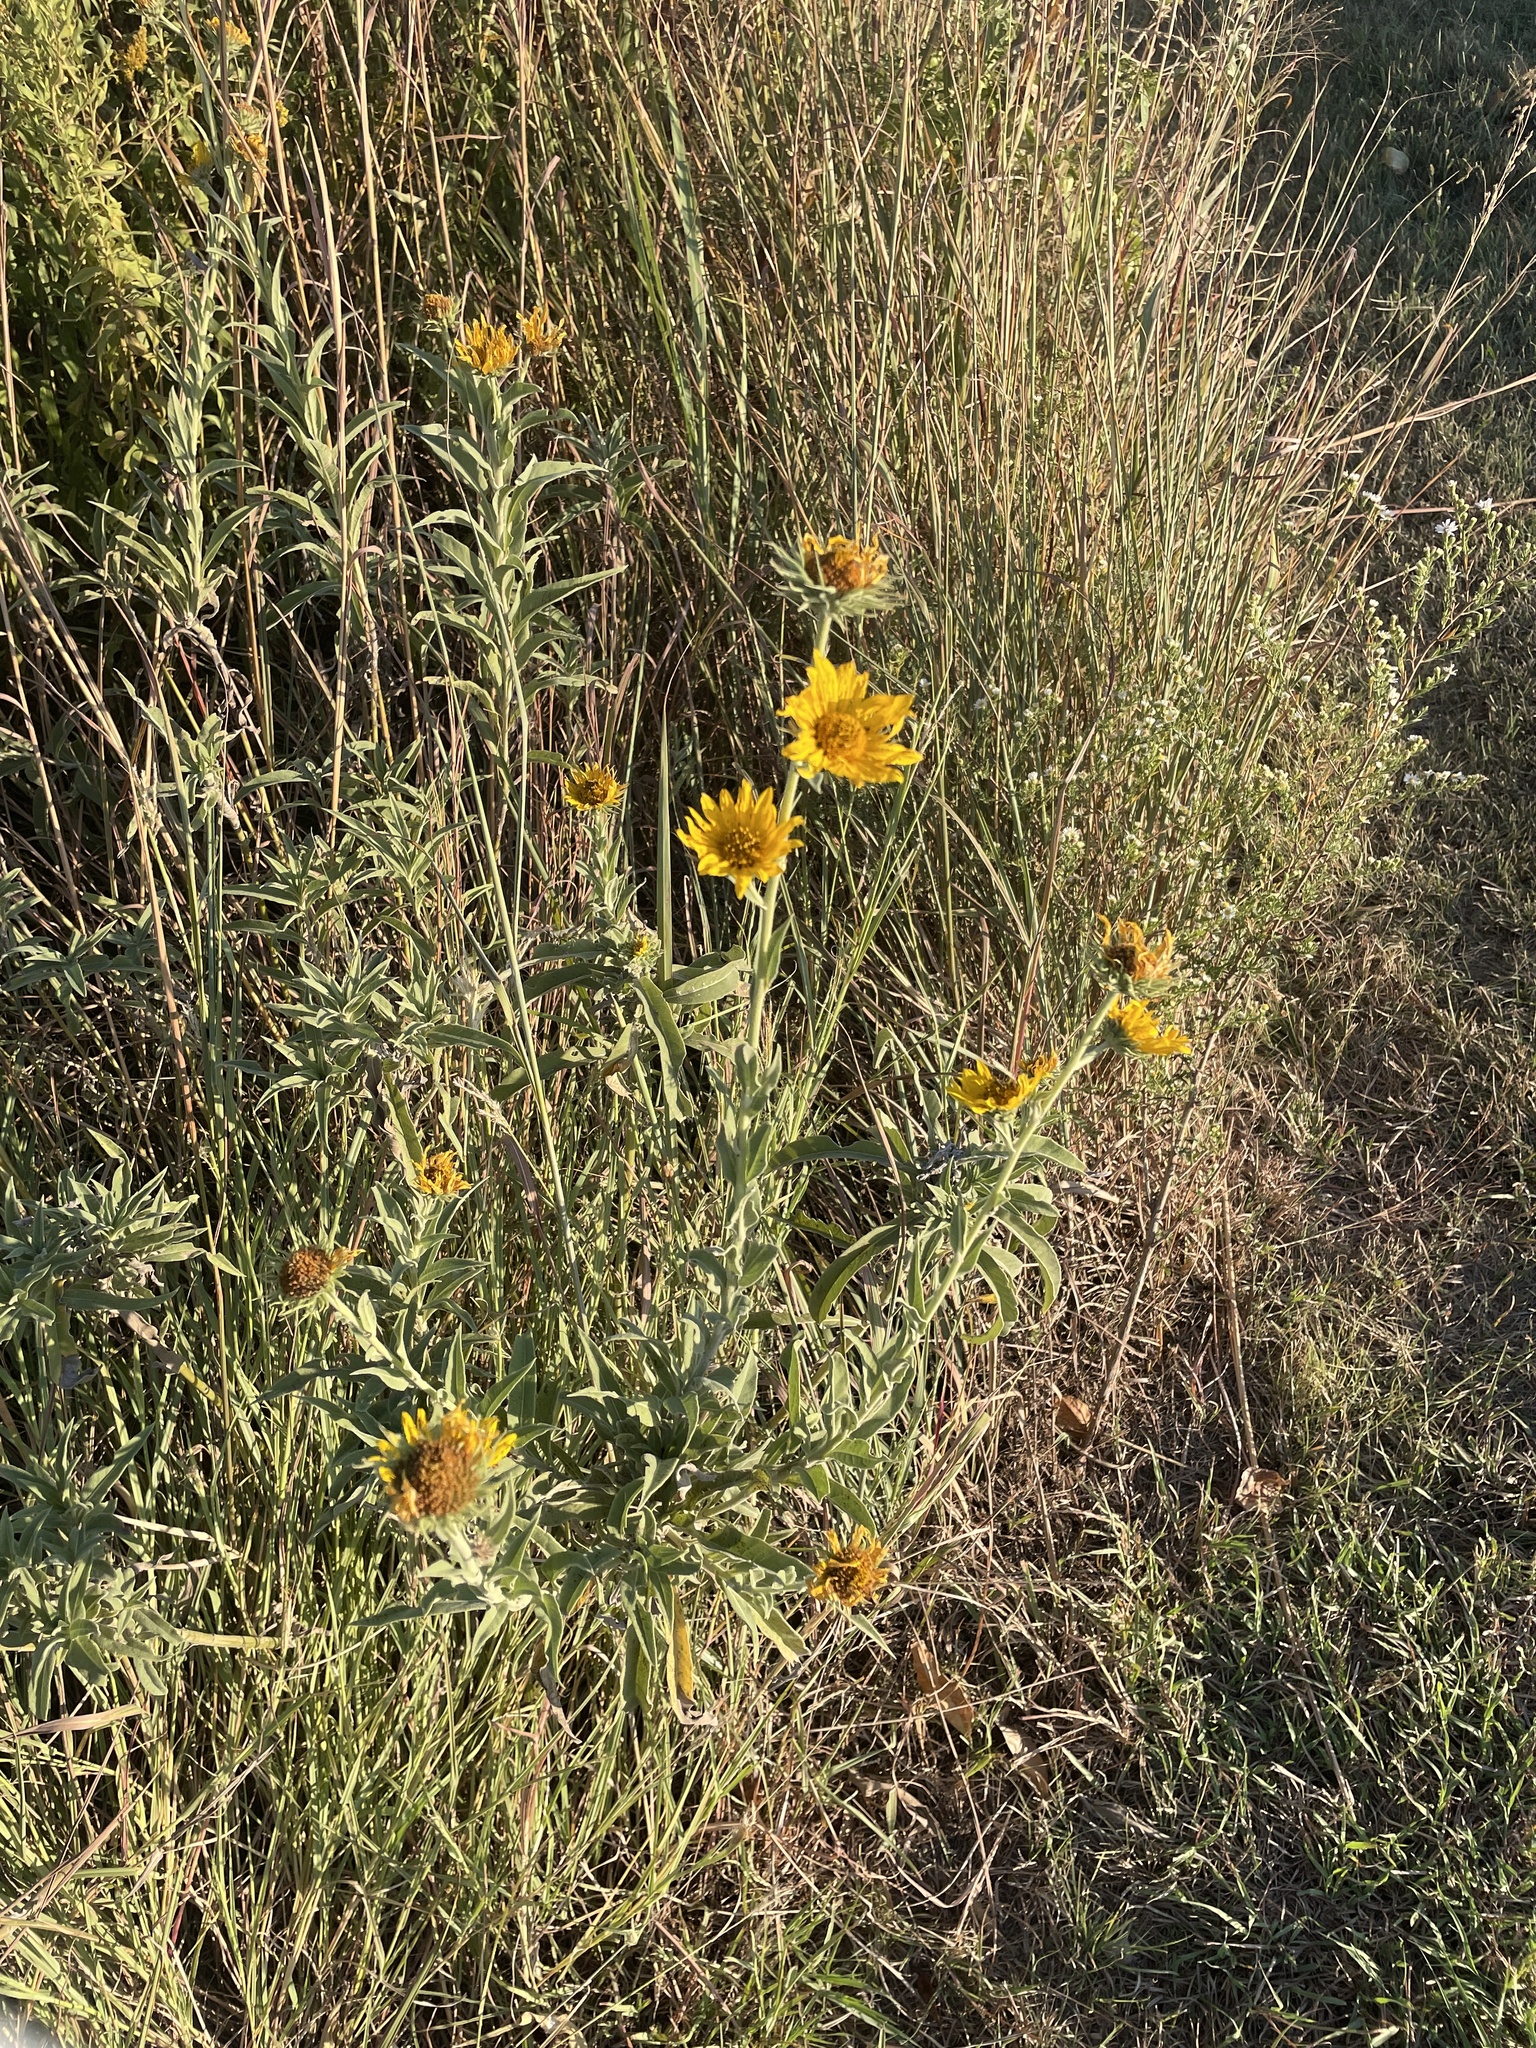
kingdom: Plantae
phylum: Tracheophyta
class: Magnoliopsida
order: Asterales
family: Asteraceae
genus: Helianthus
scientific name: Helianthus maximiliani
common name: Maximilian's sunflower
